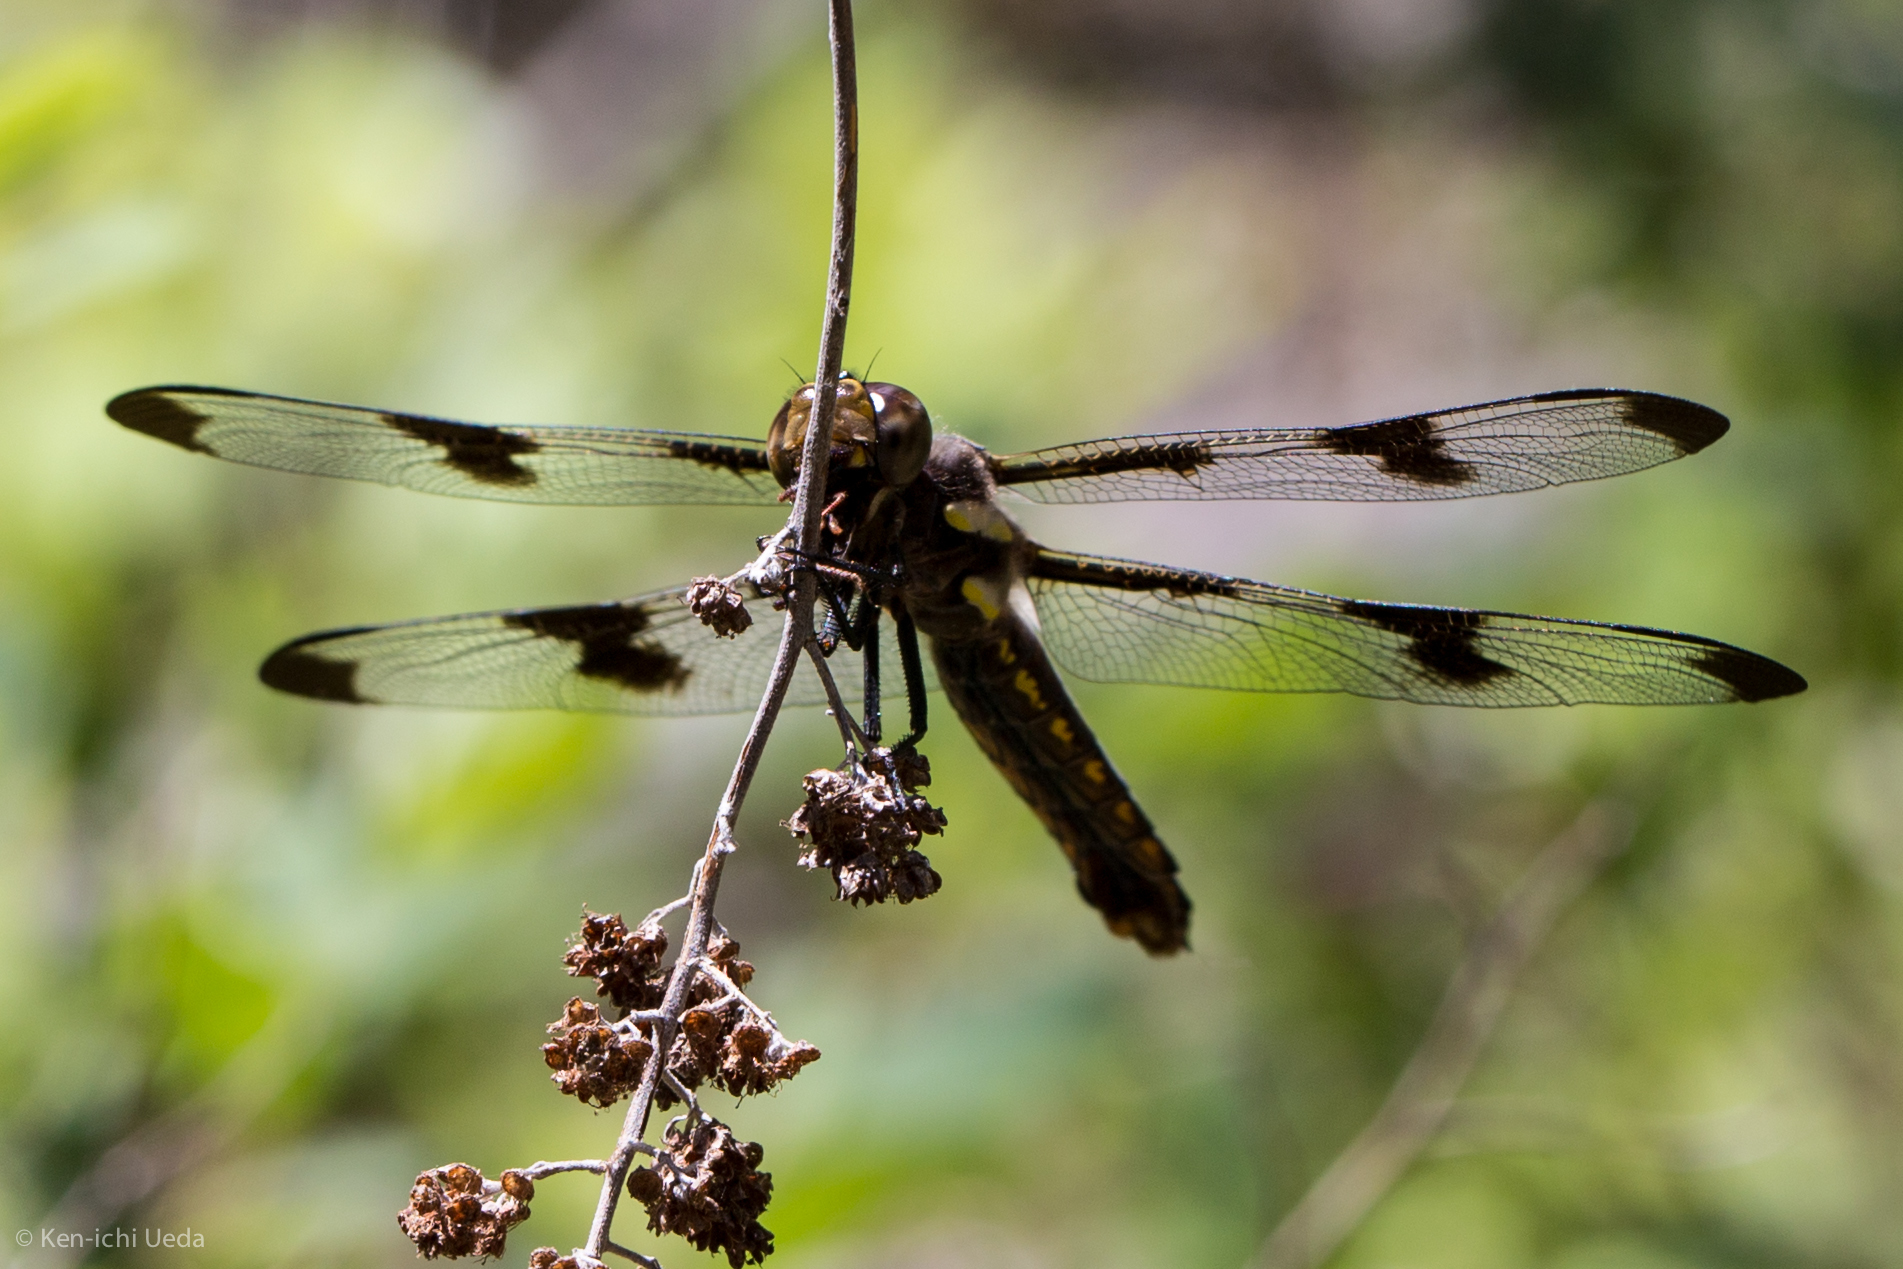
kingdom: Animalia
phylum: Arthropoda
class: Insecta
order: Odonata
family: Libellulidae
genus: Plathemis
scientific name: Plathemis lydia
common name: Common whitetail
